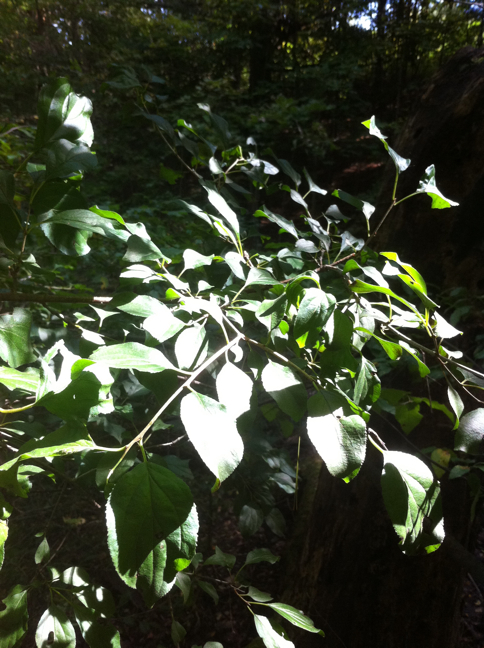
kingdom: Plantae
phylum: Tracheophyta
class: Magnoliopsida
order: Rosales
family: Rhamnaceae
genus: Rhamnus
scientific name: Rhamnus cathartica
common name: Common buckthorn
